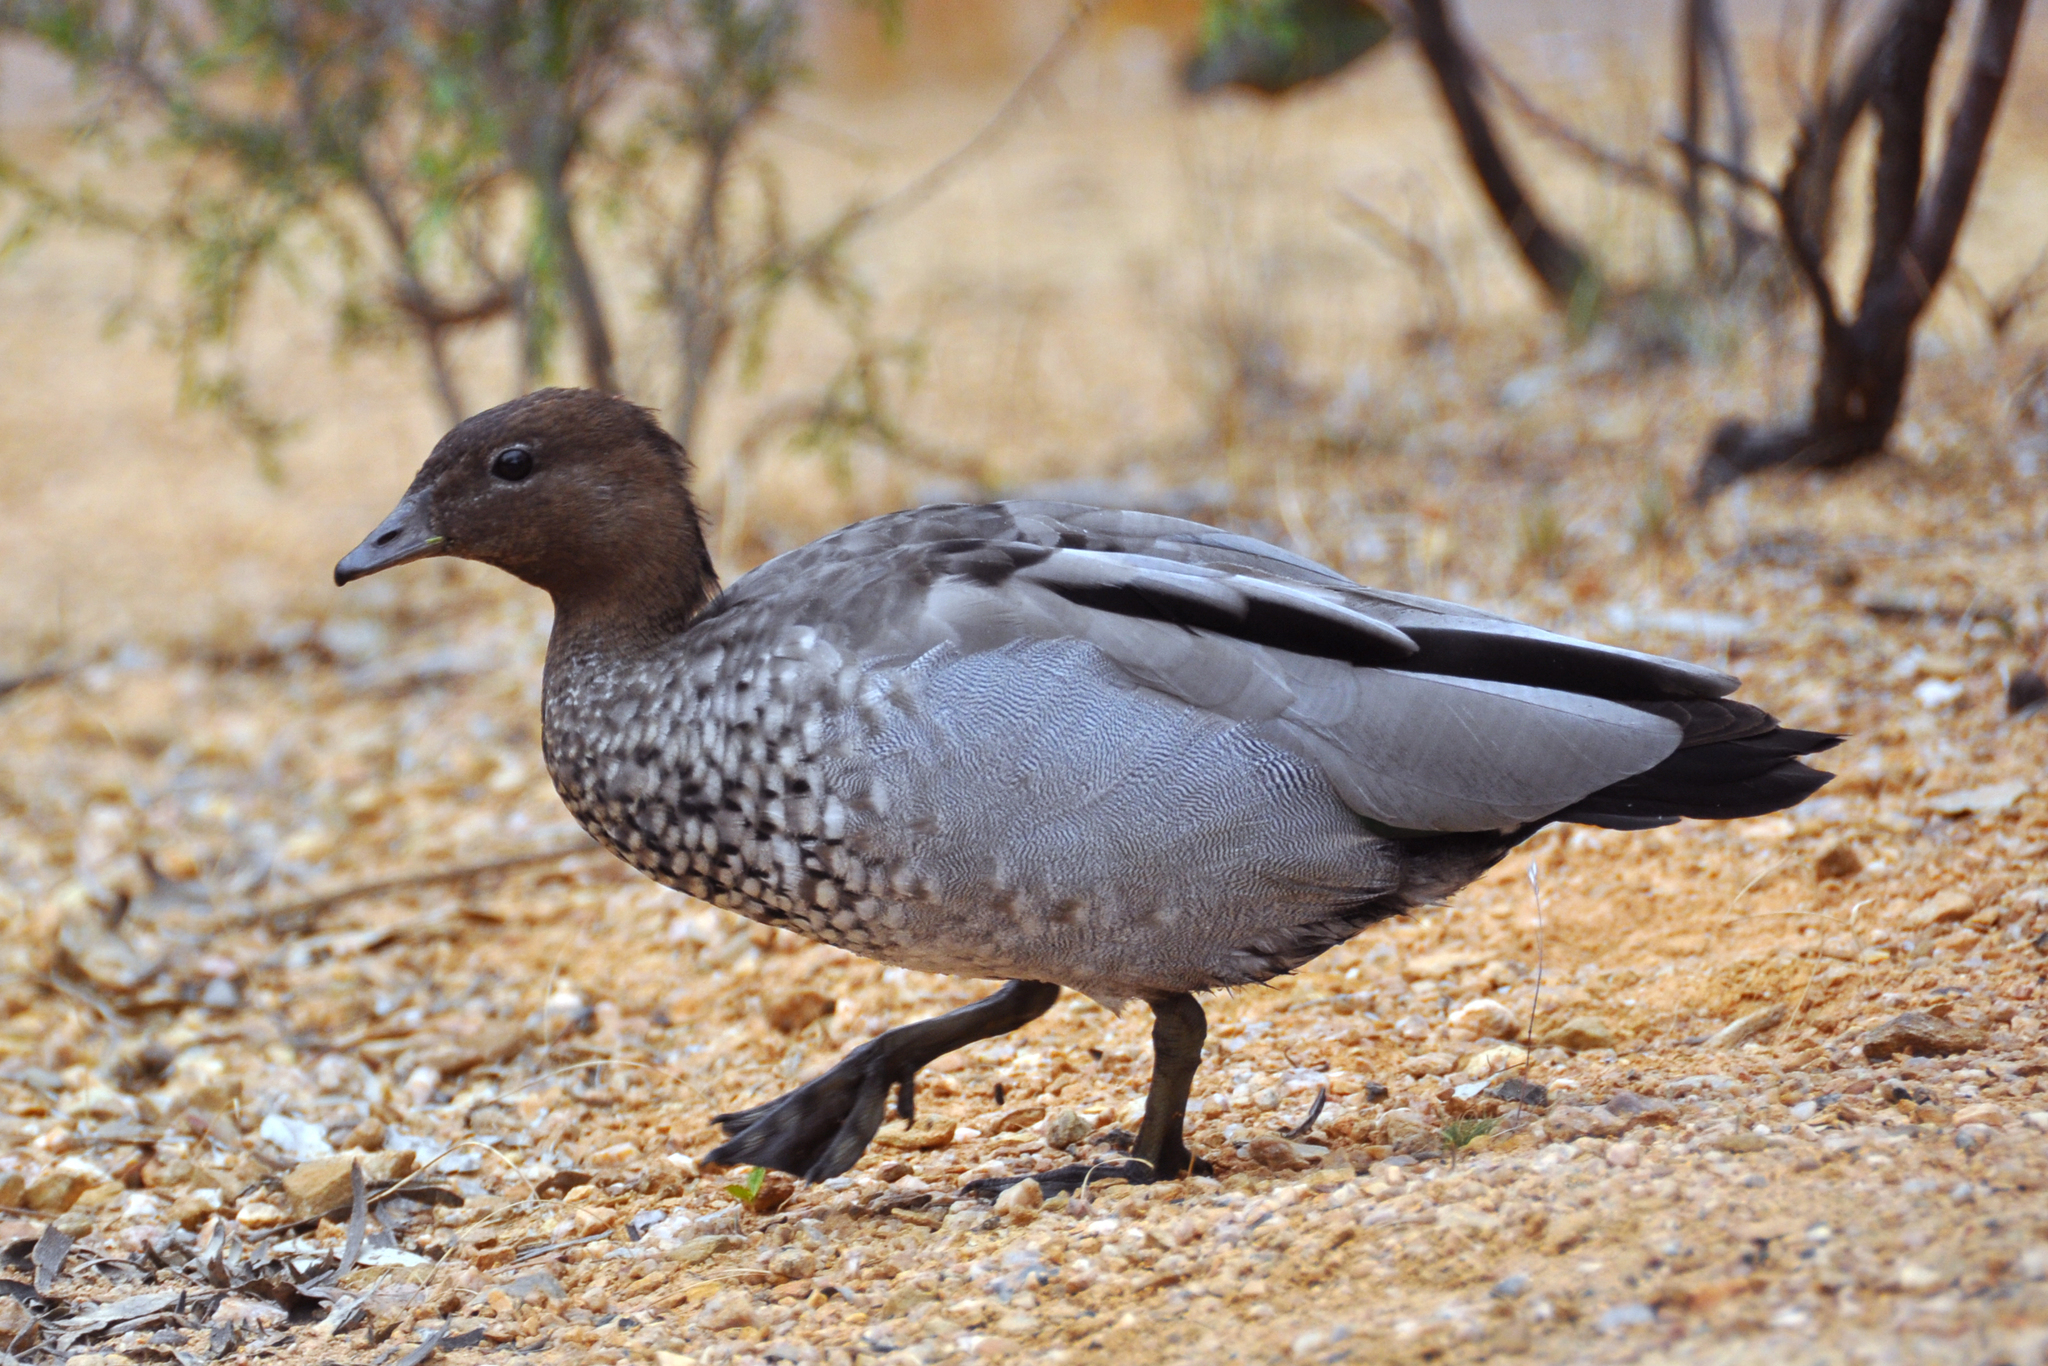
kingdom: Animalia
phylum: Chordata
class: Aves
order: Anseriformes
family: Anatidae
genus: Chenonetta
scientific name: Chenonetta jubata
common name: Maned duck
